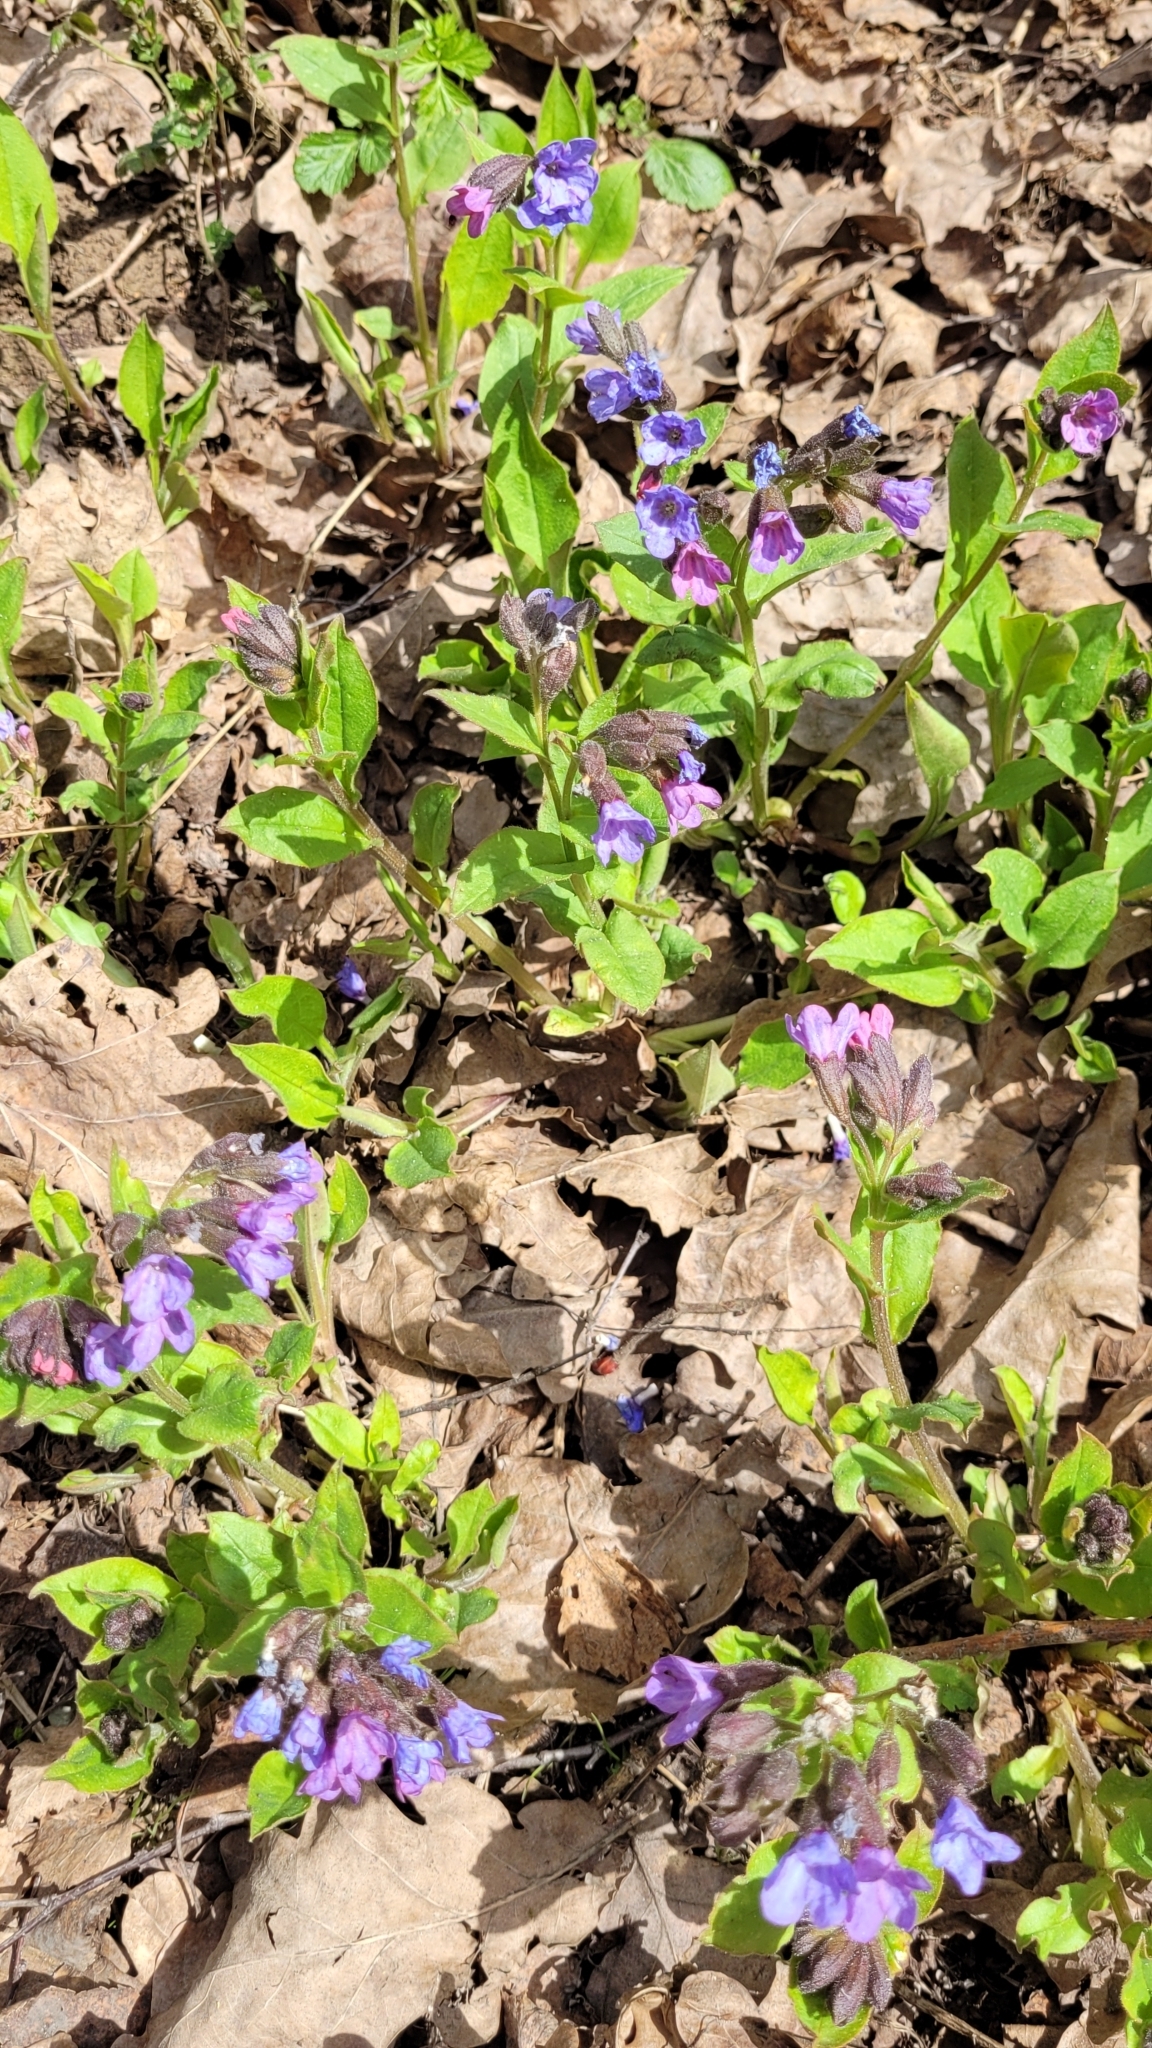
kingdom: Plantae
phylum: Tracheophyta
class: Magnoliopsida
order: Boraginales
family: Boraginaceae
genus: Pulmonaria
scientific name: Pulmonaria obscura
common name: Suffolk lungwort
